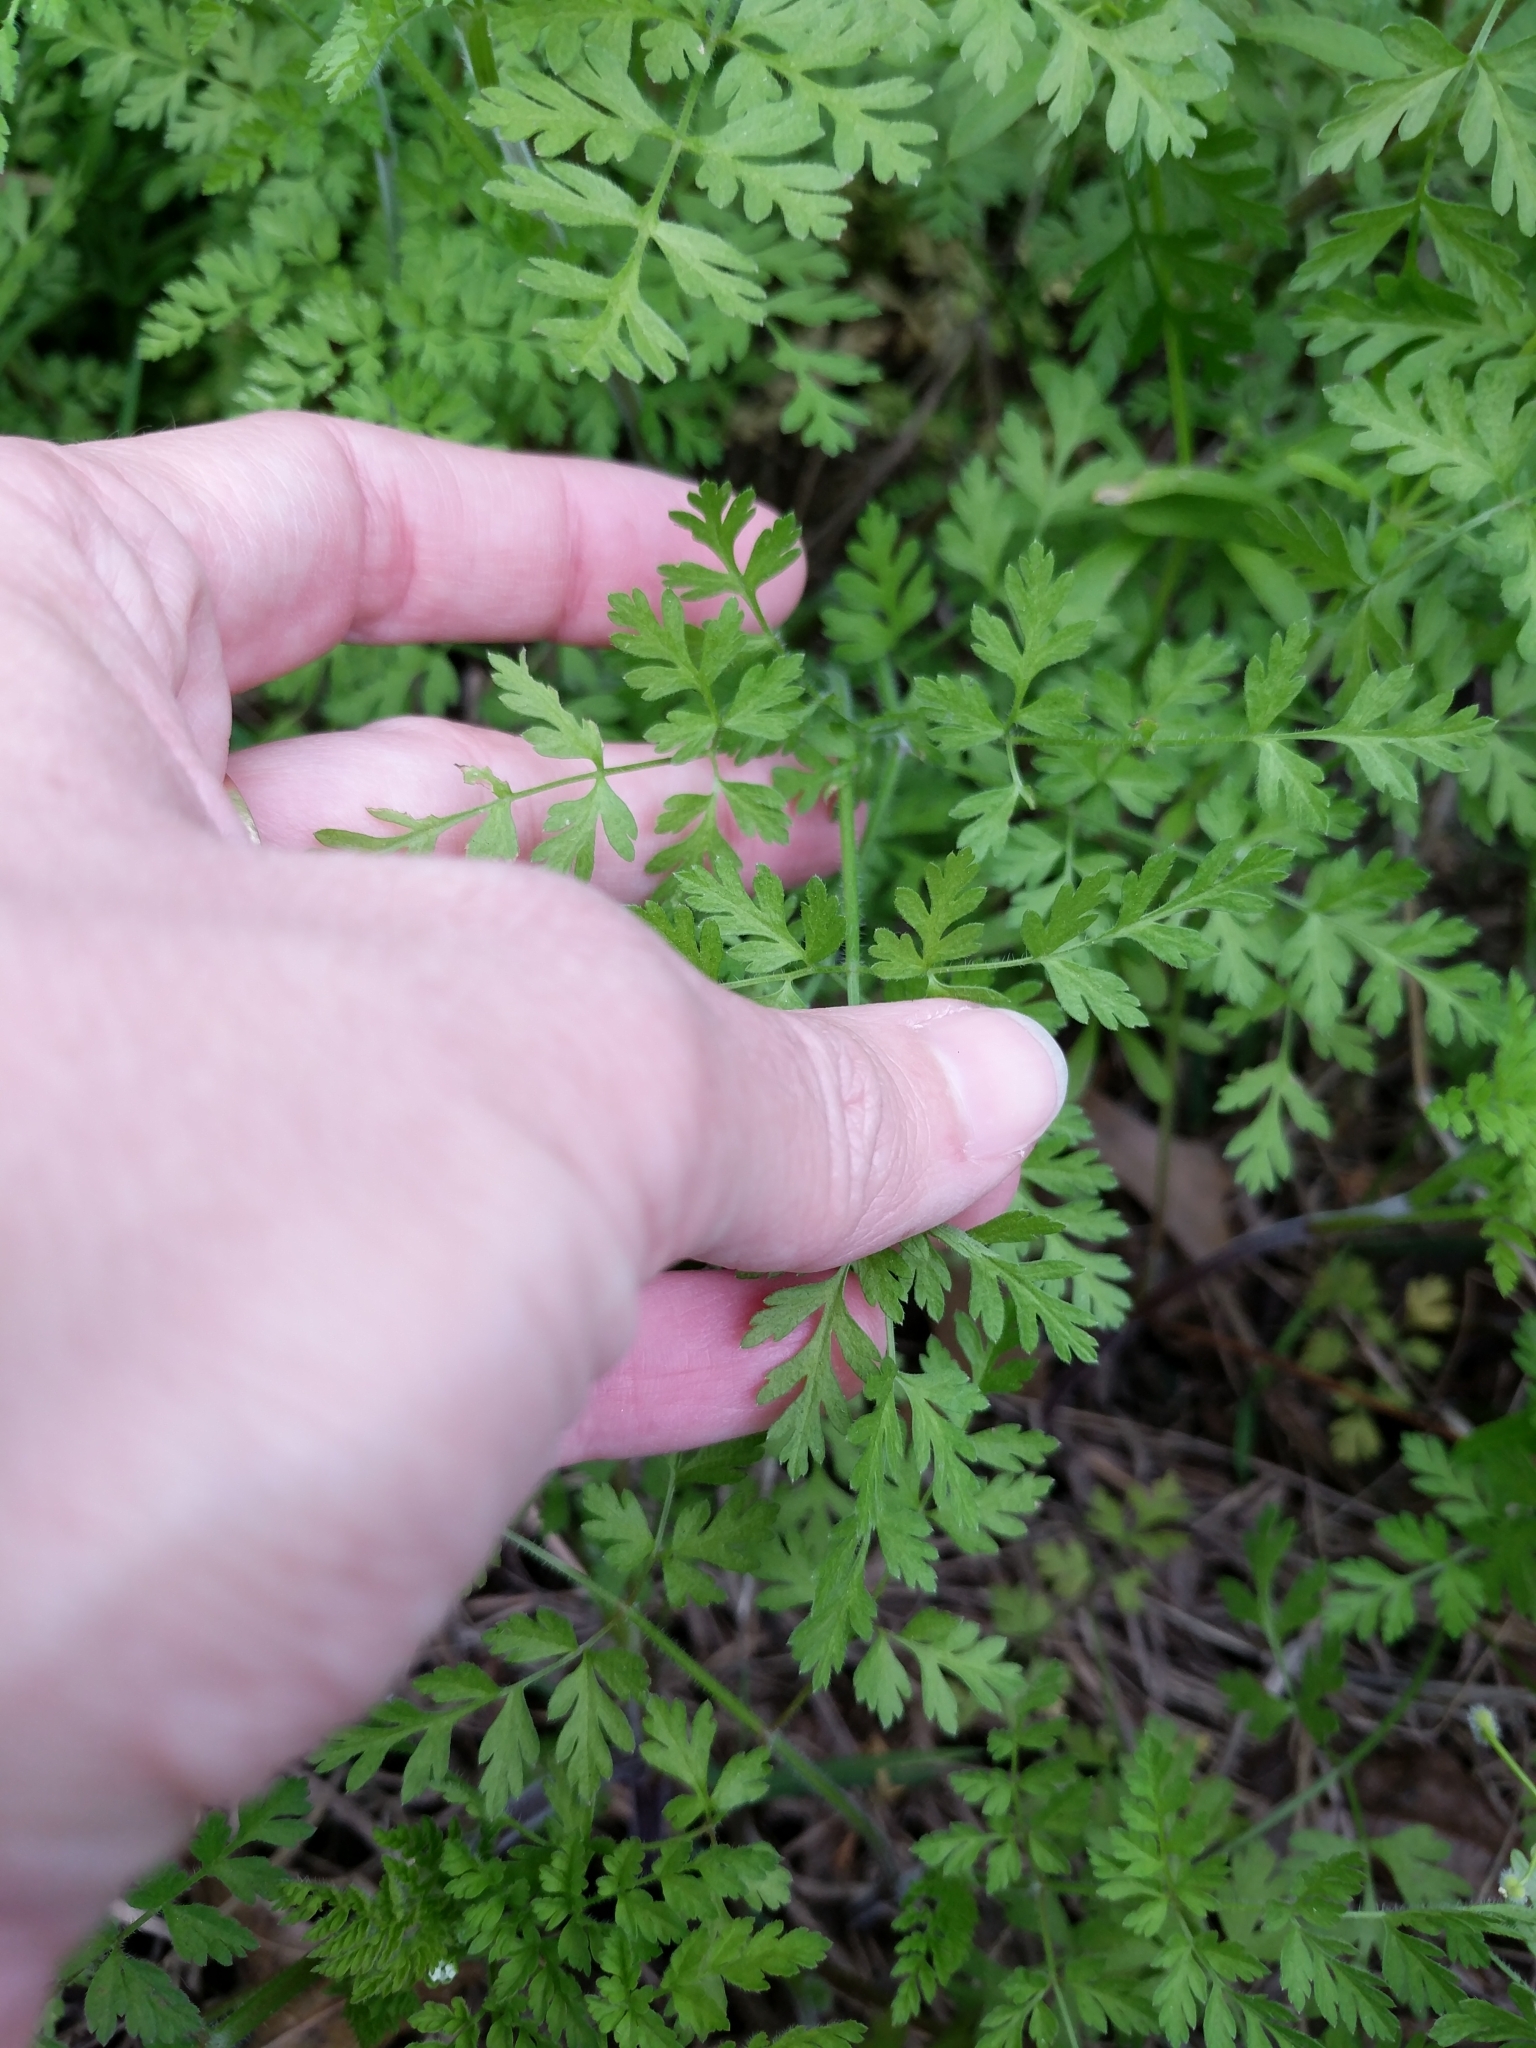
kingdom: Plantae
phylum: Tracheophyta
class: Magnoliopsida
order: Apiales
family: Apiaceae
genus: Chaerophyllum
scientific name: Chaerophyllum tainturieri
